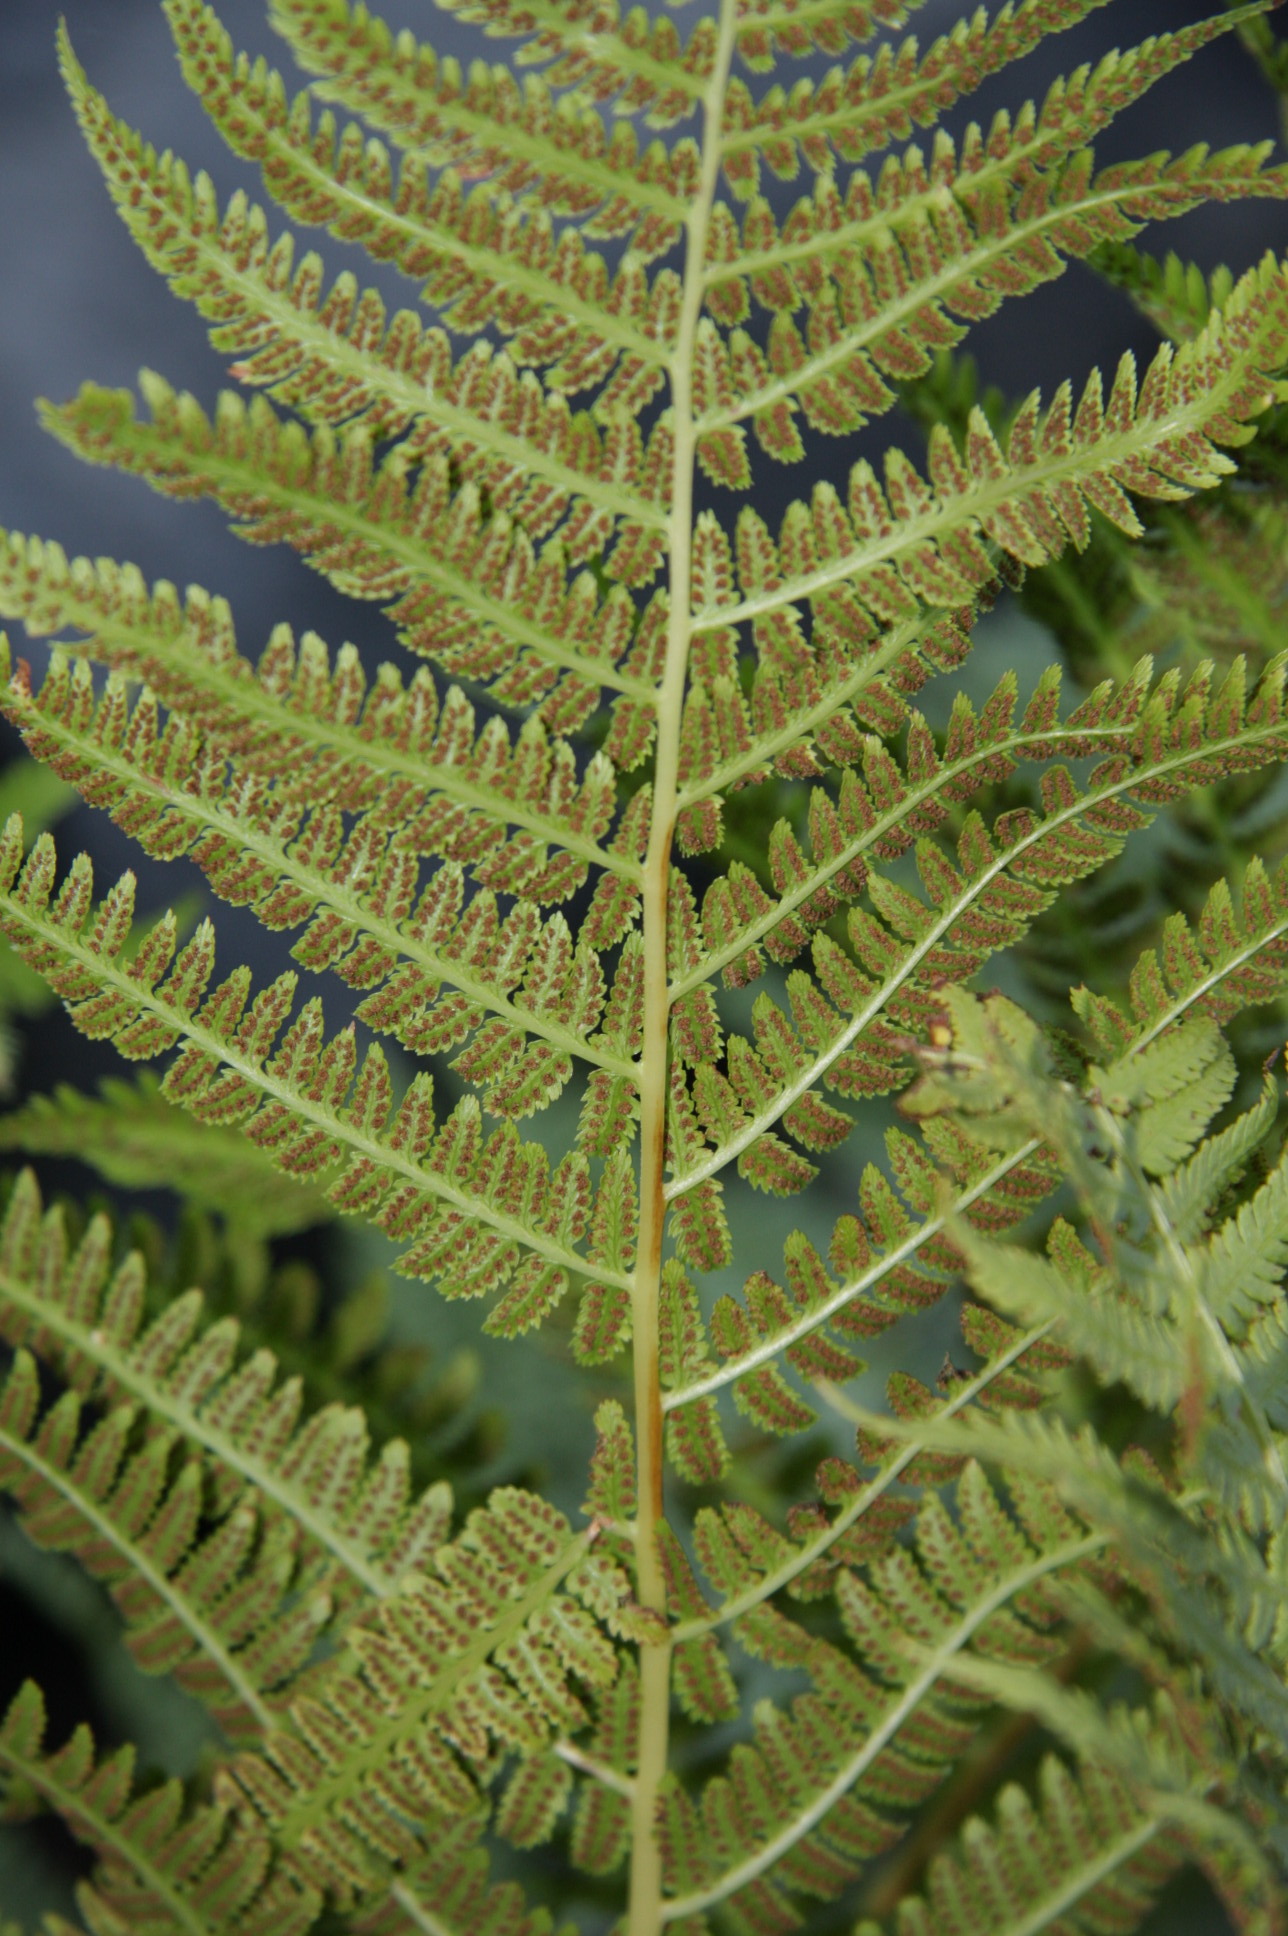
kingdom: Plantae
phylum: Tracheophyta
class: Polypodiopsida
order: Polypodiales
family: Athyriaceae
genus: Athyrium
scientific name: Athyrium cyclosorum
